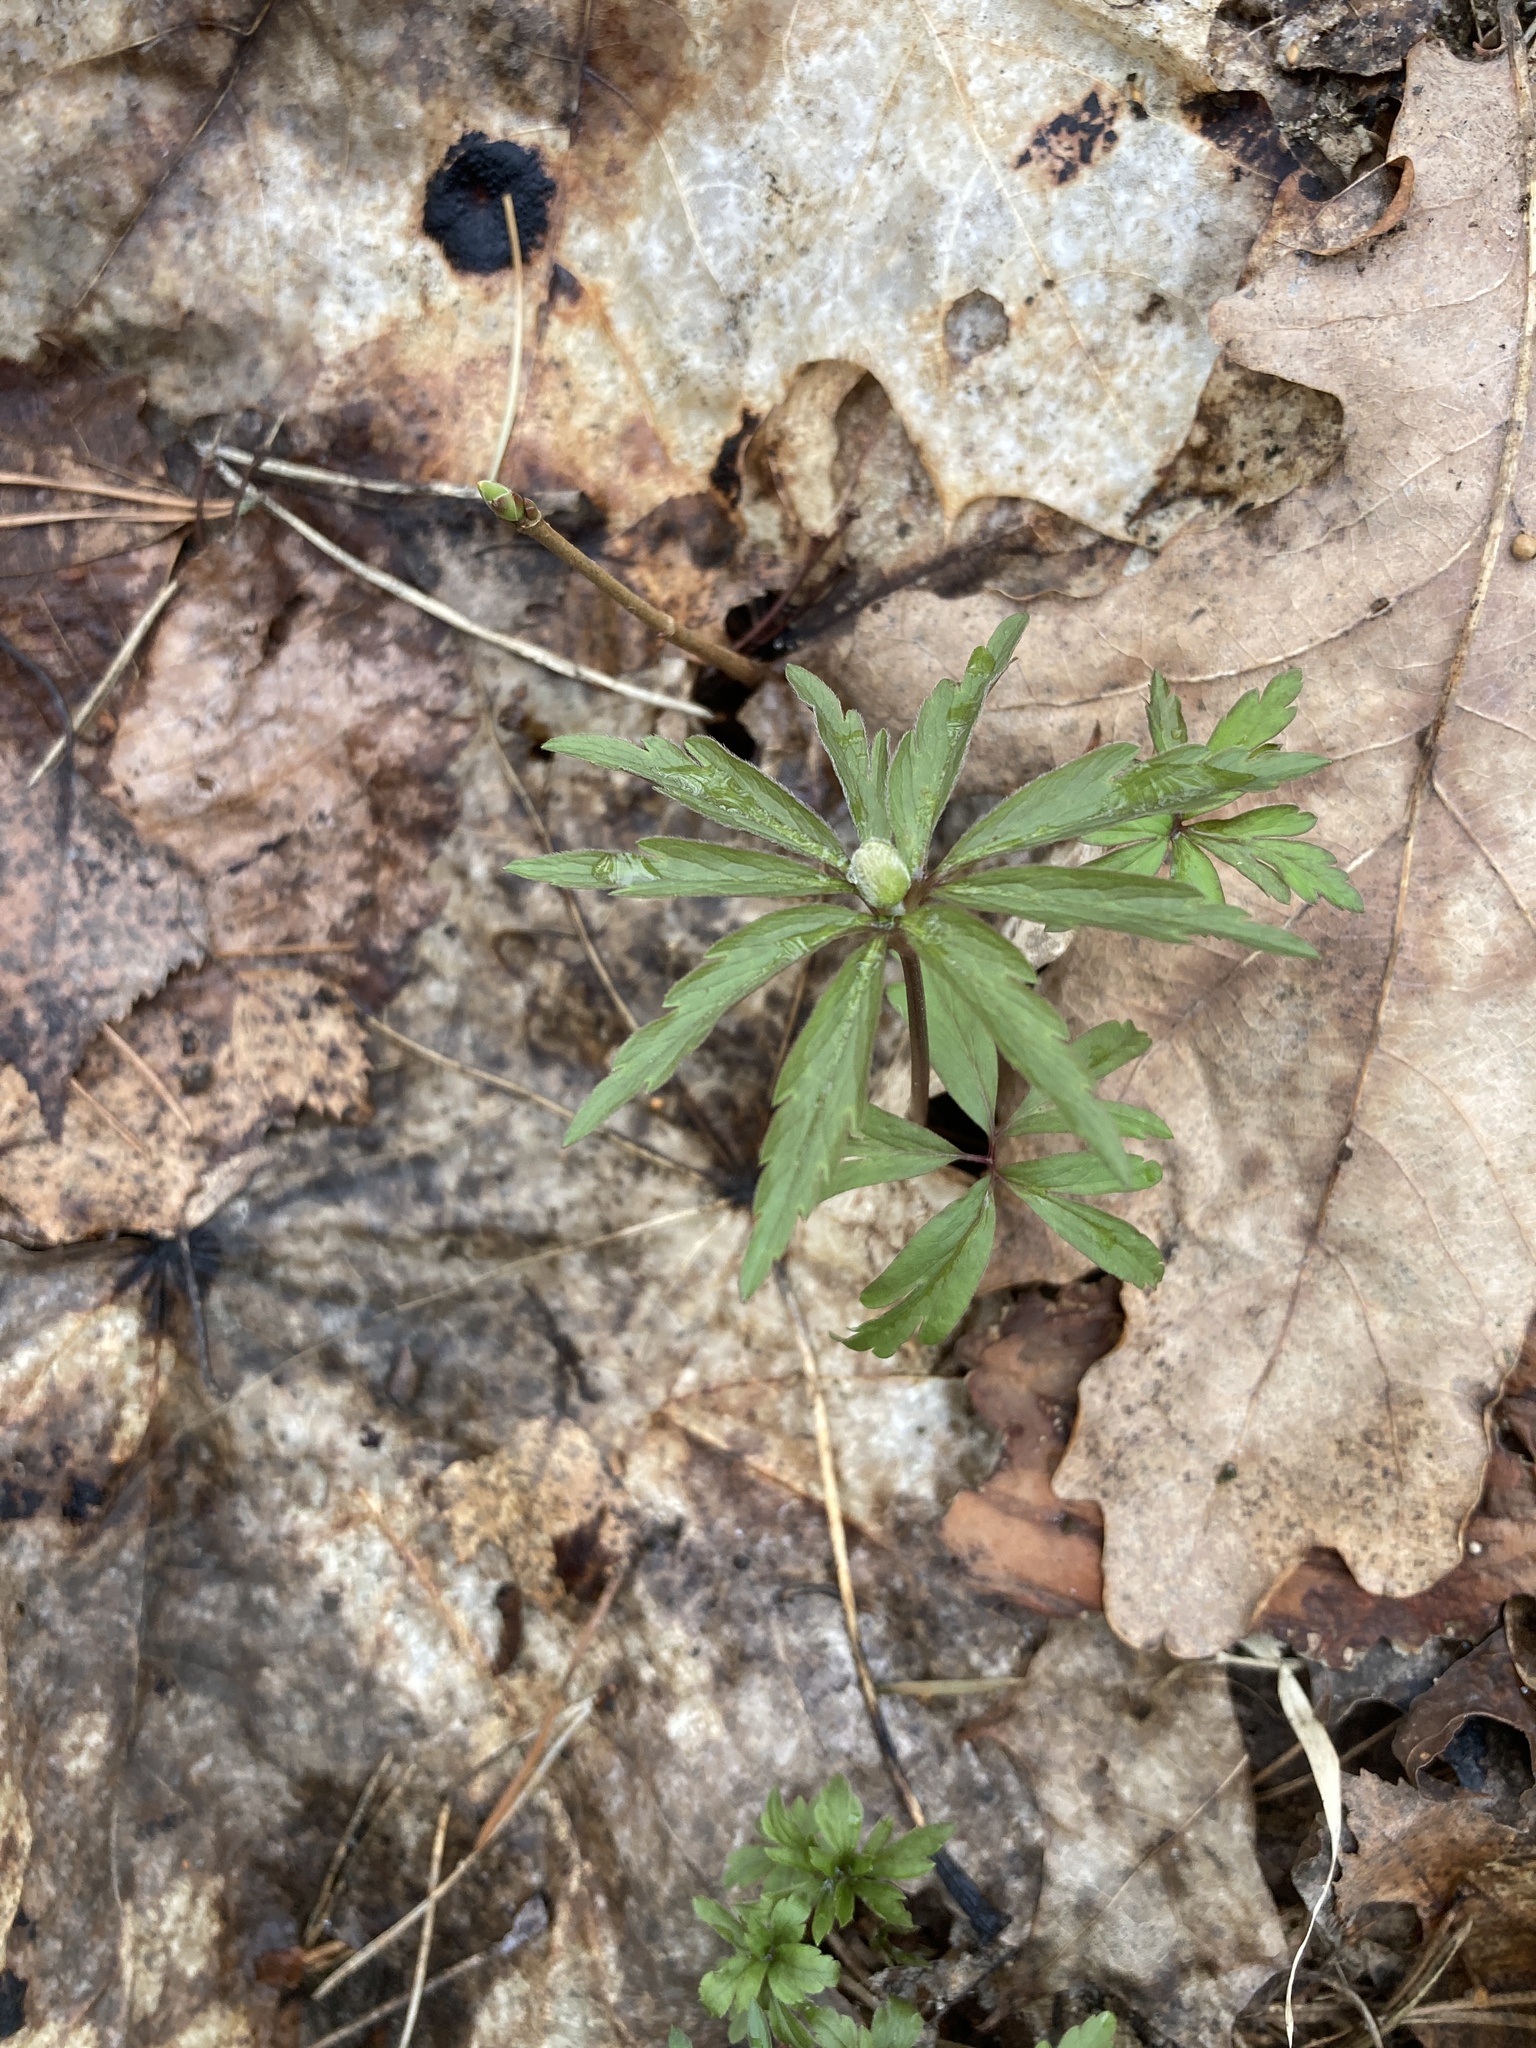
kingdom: Plantae
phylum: Tracheophyta
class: Magnoliopsida
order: Ranunculales
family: Ranunculaceae
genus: Anemone
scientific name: Anemone ranunculoides
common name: Yellow anemone
